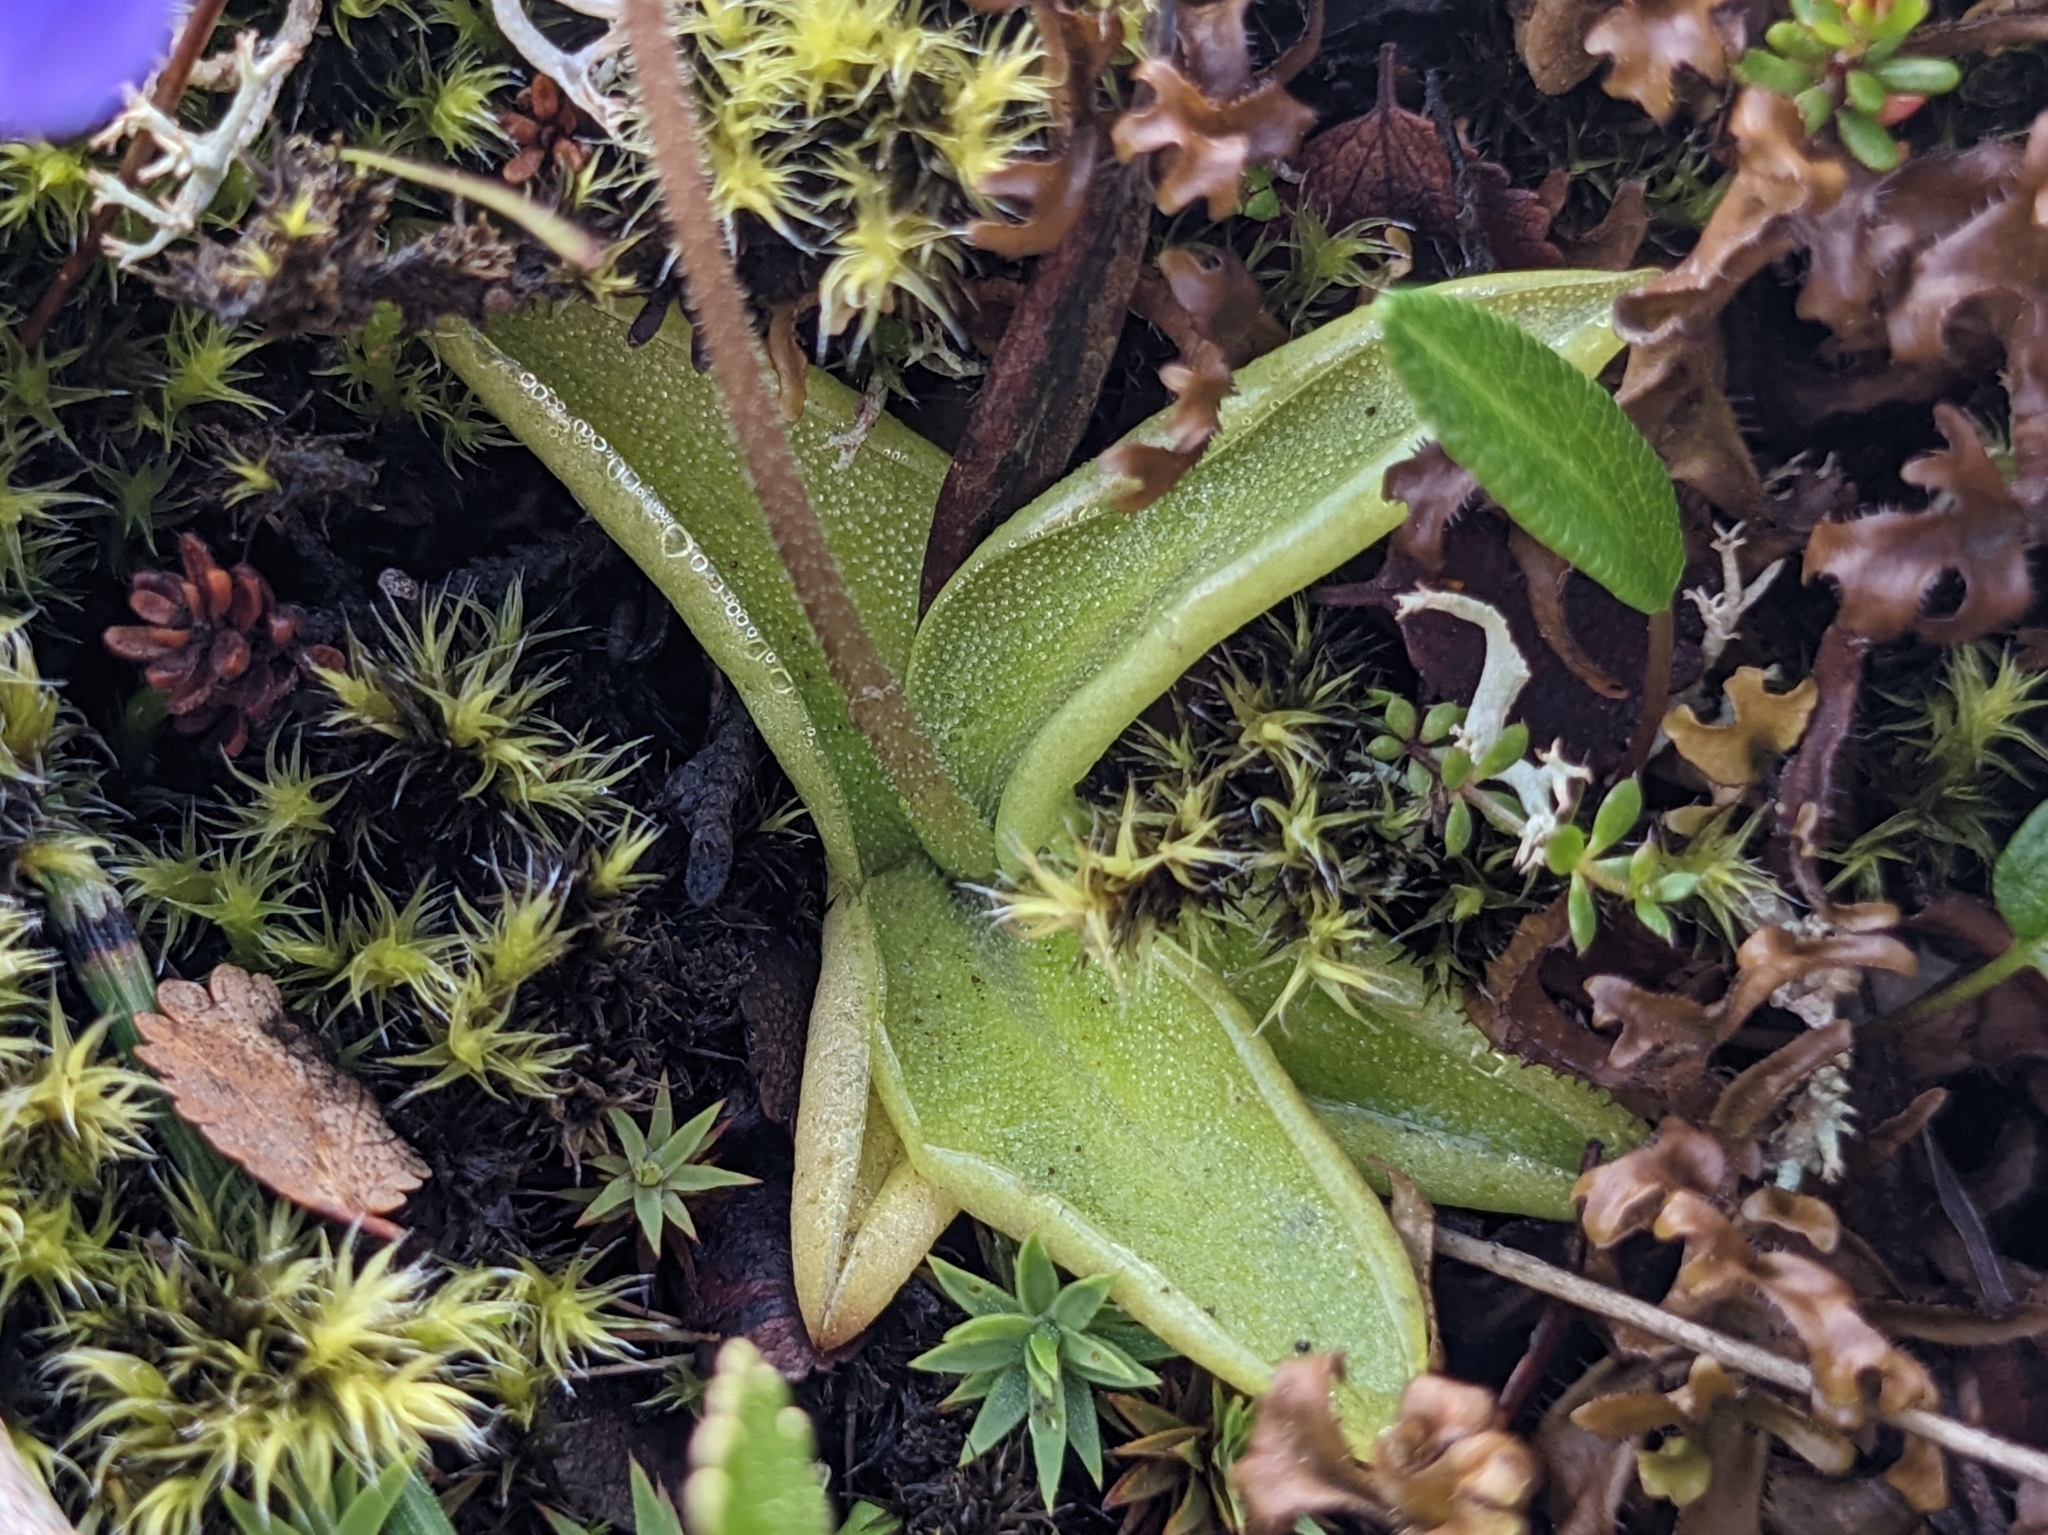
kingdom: Plantae
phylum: Tracheophyta
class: Magnoliopsida
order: Lamiales
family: Lentibulariaceae
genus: Pinguicula
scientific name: Pinguicula vulgaris
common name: Common butterwort
